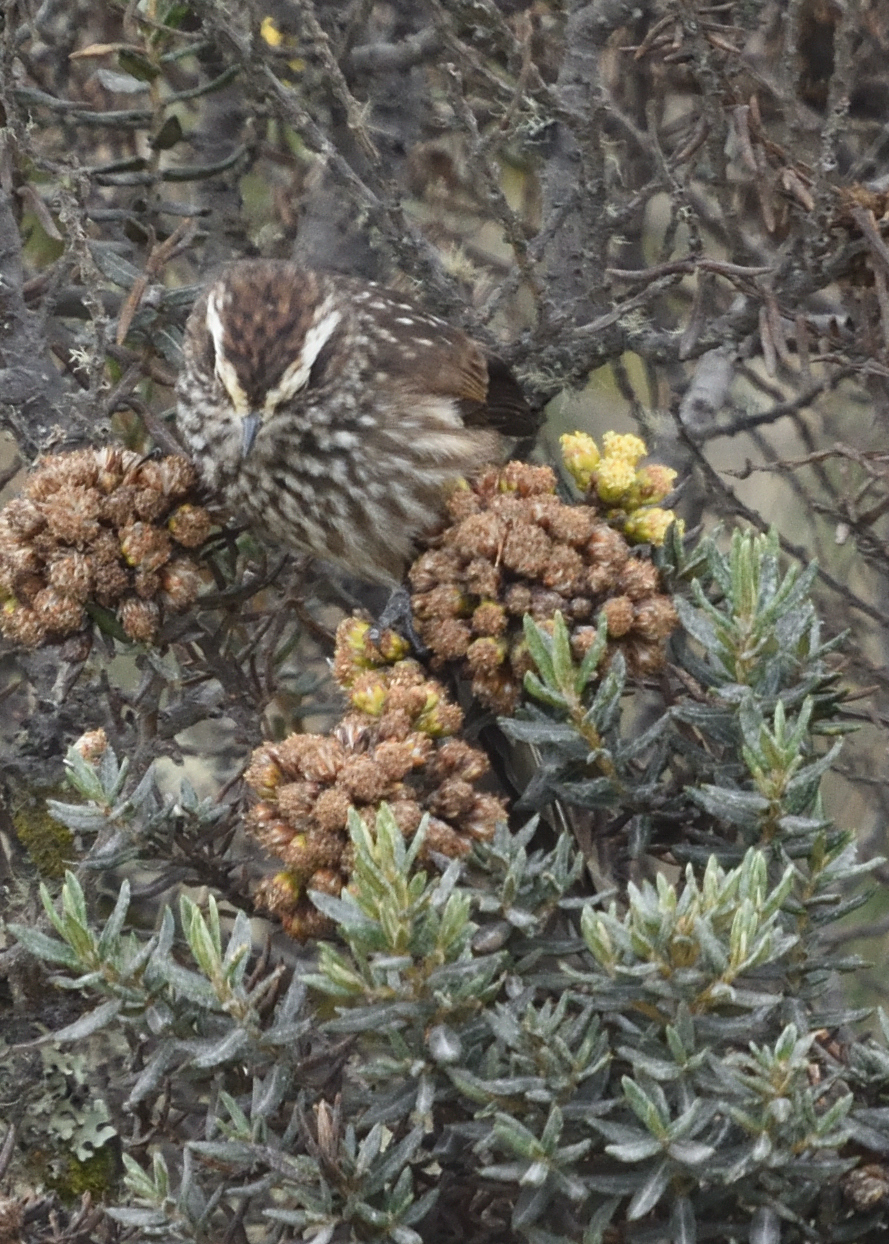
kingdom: Animalia
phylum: Chordata
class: Aves
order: Passeriformes
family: Furnariidae
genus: Leptasthenura
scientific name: Leptasthenura andicola
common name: Andean tit-spinetail
